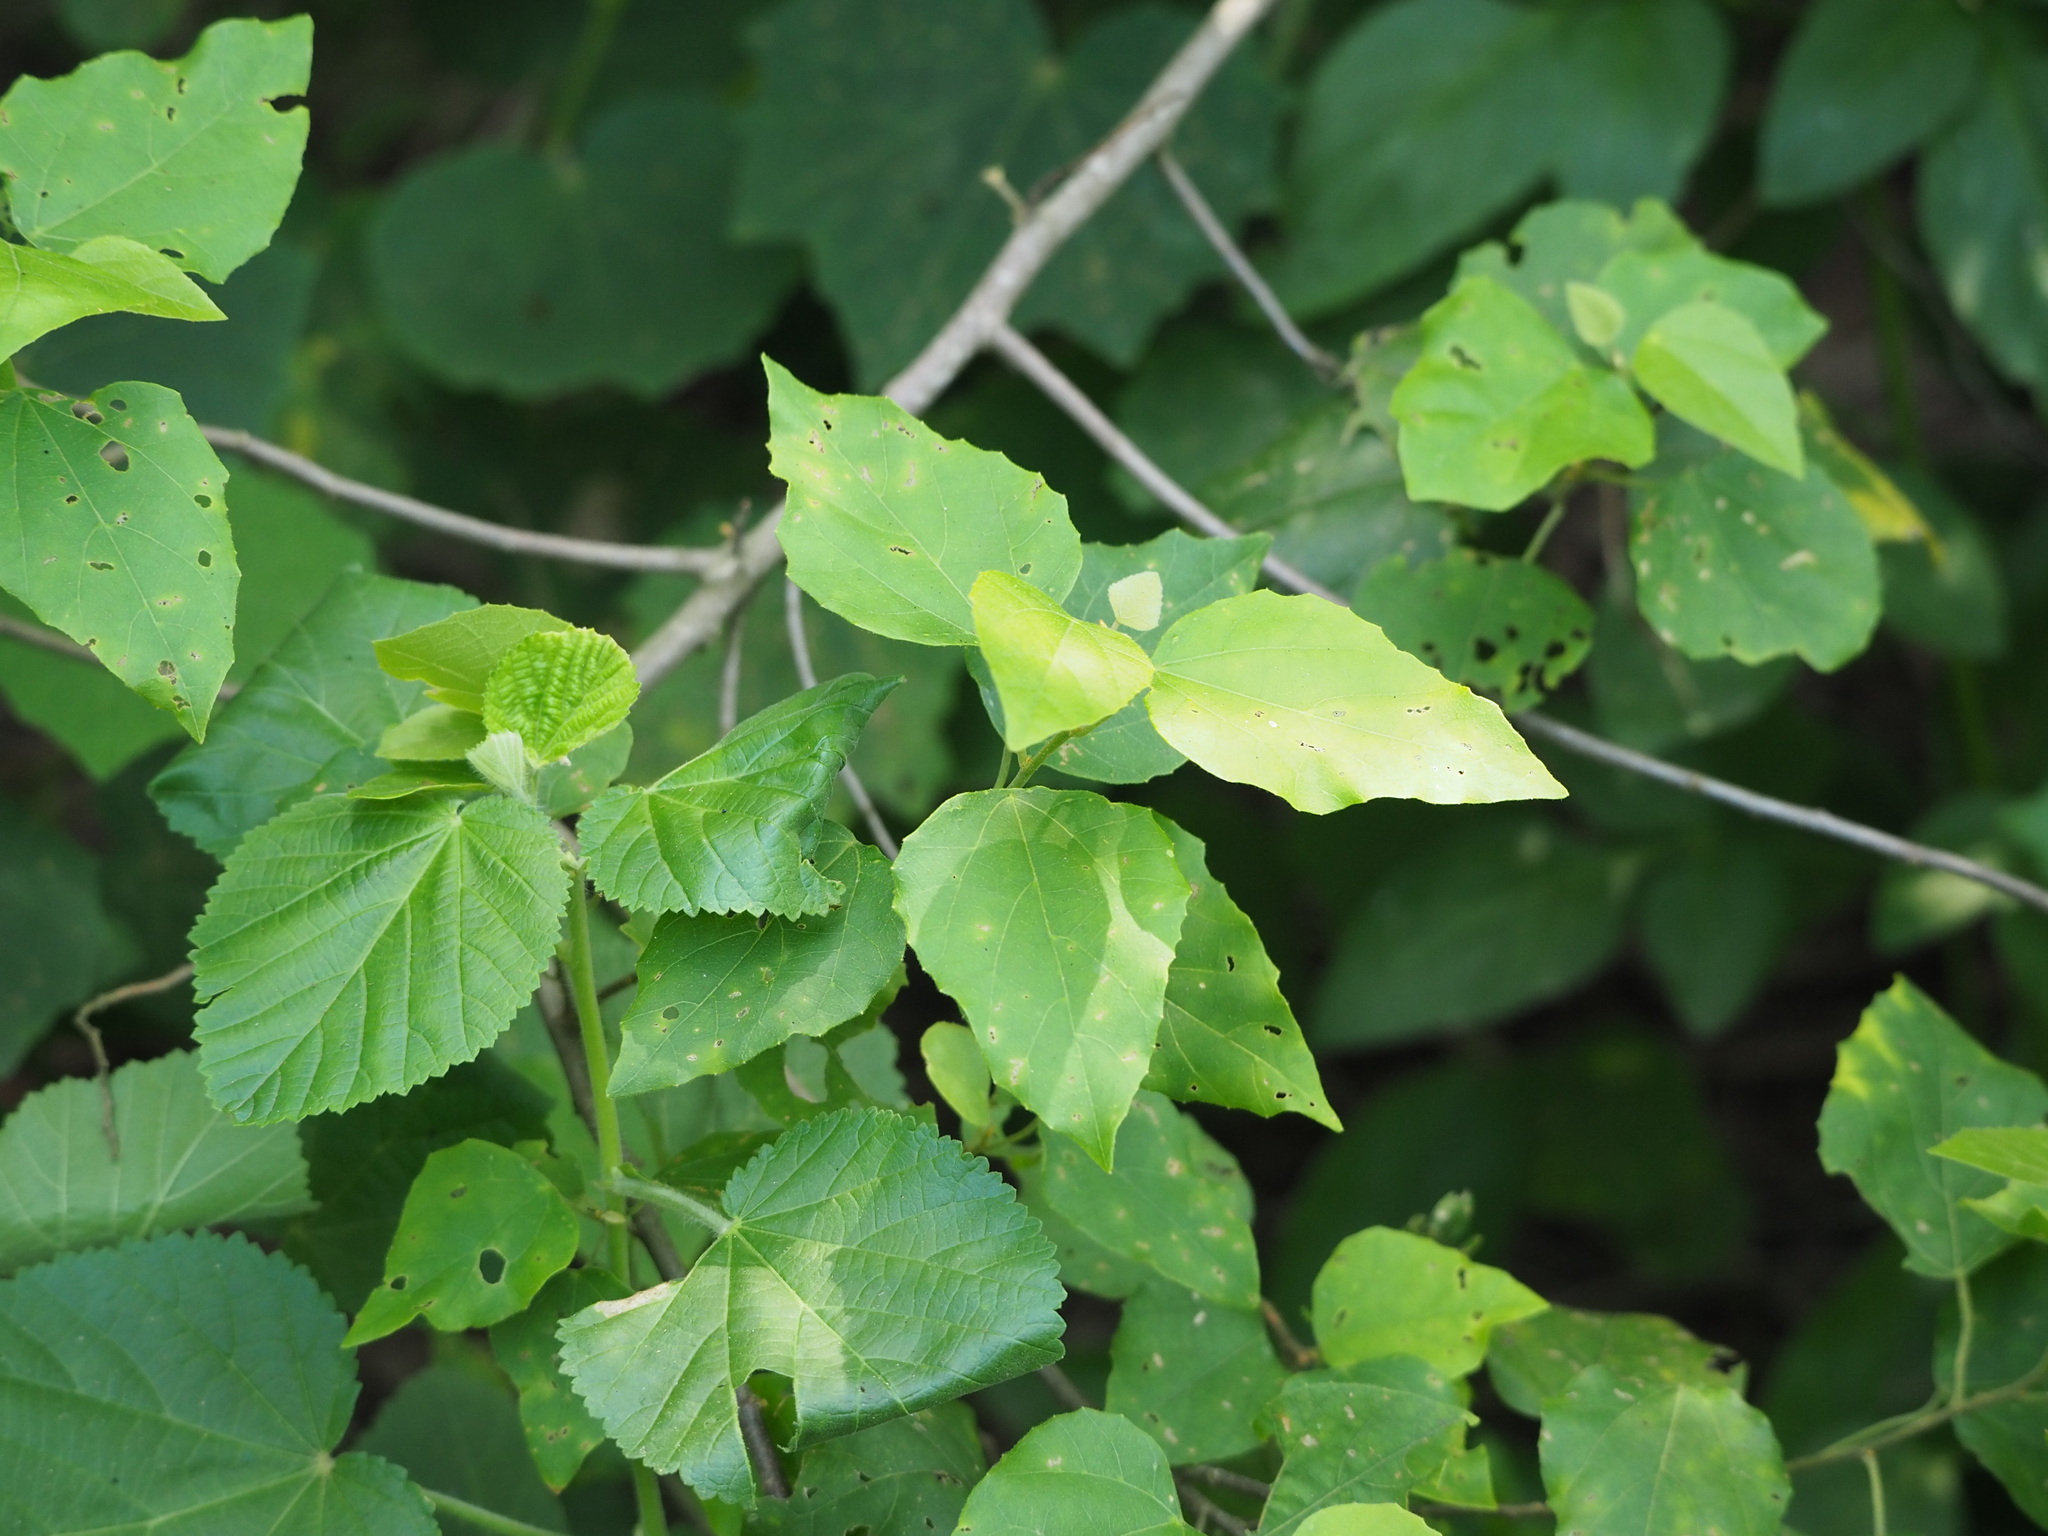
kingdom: Plantae
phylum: Tracheophyta
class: Magnoliopsida
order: Malpighiales
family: Euphorbiaceae
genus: Mallotus
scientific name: Mallotus repandus
